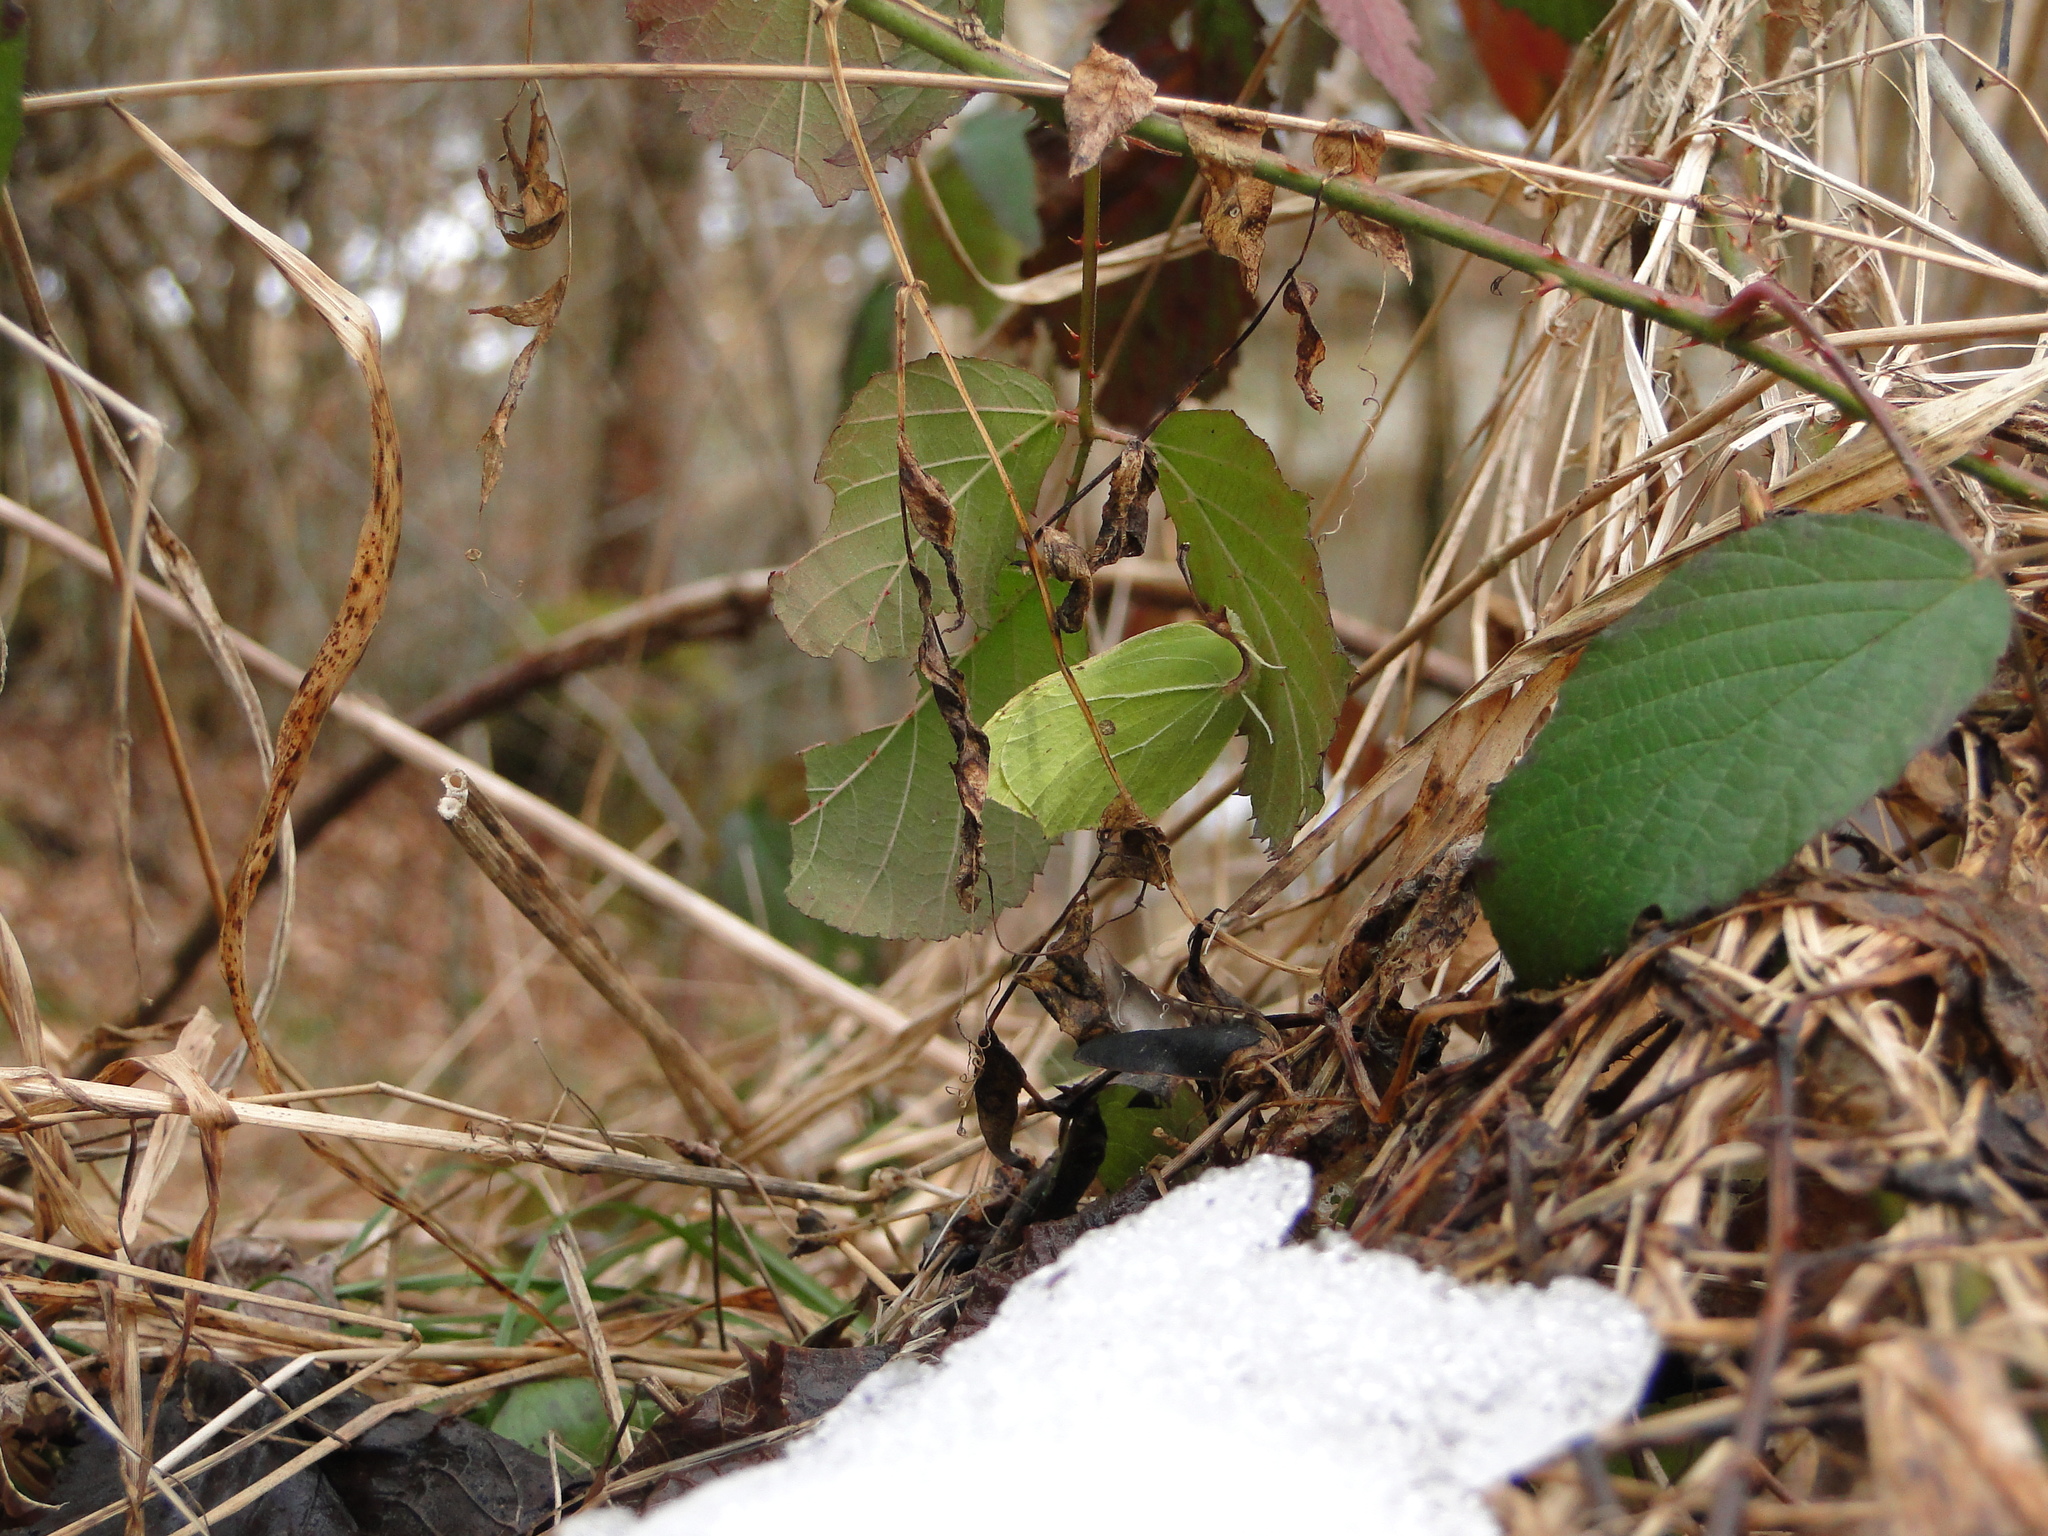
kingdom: Animalia
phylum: Arthropoda
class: Insecta
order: Lepidoptera
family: Pieridae
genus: Gonepteryx
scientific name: Gonepteryx rhamni
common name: Brimstone
